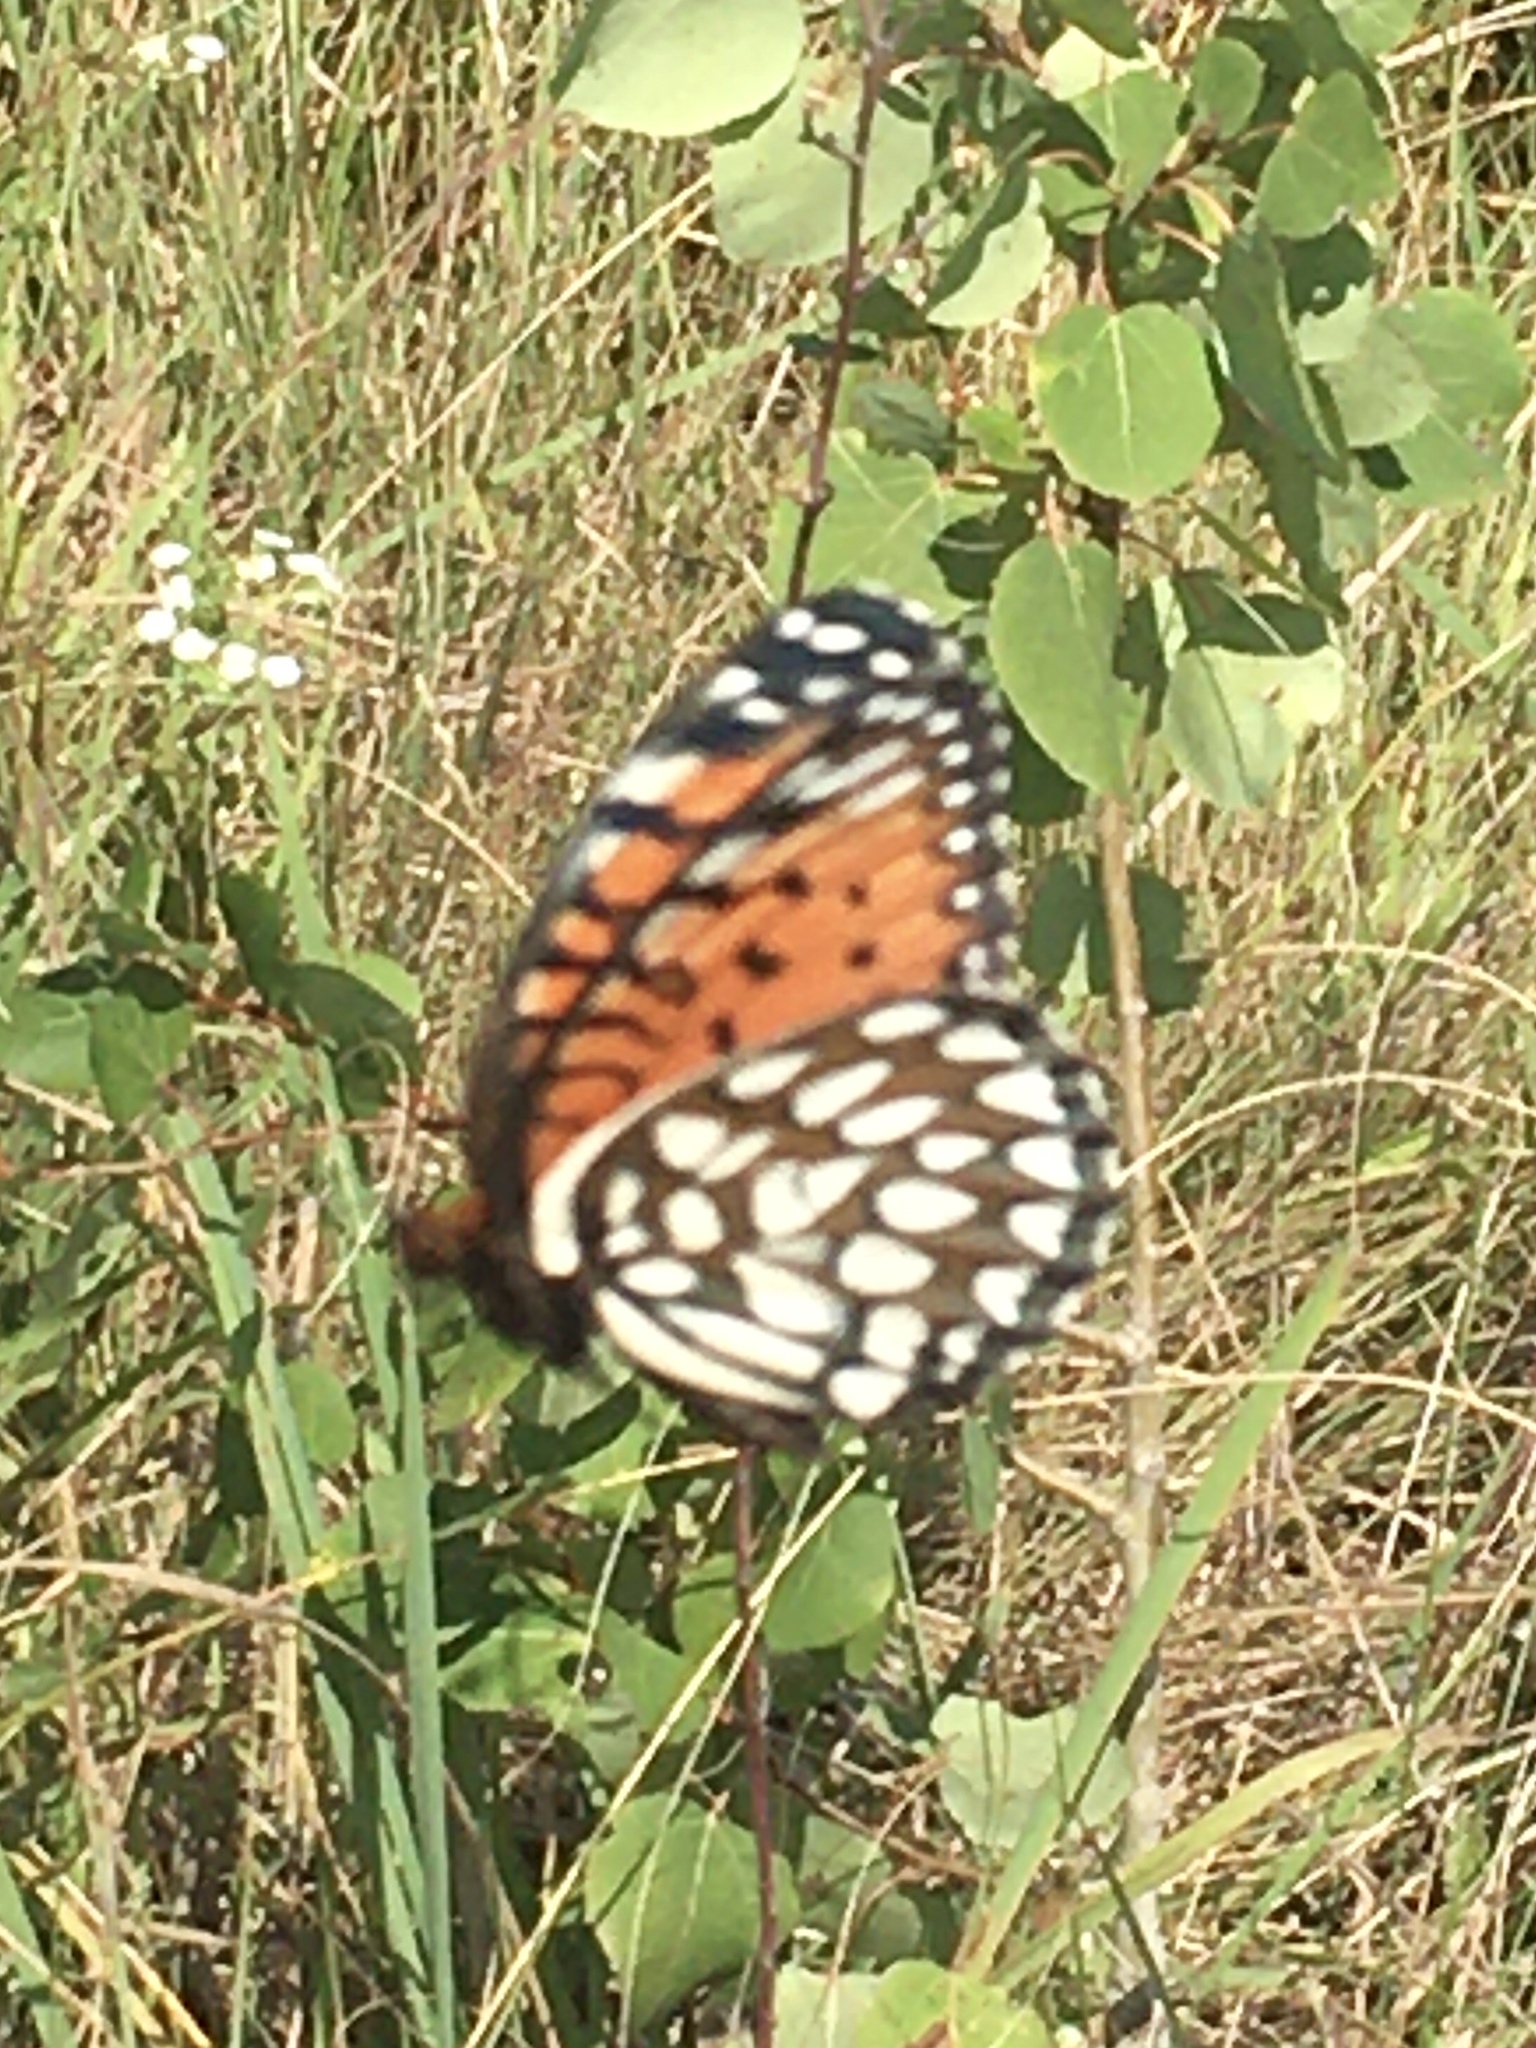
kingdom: Animalia
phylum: Arthropoda
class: Insecta
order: Lepidoptera
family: Nymphalidae
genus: Speyeria
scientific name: Speyeria idalia
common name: Regal fritillary
